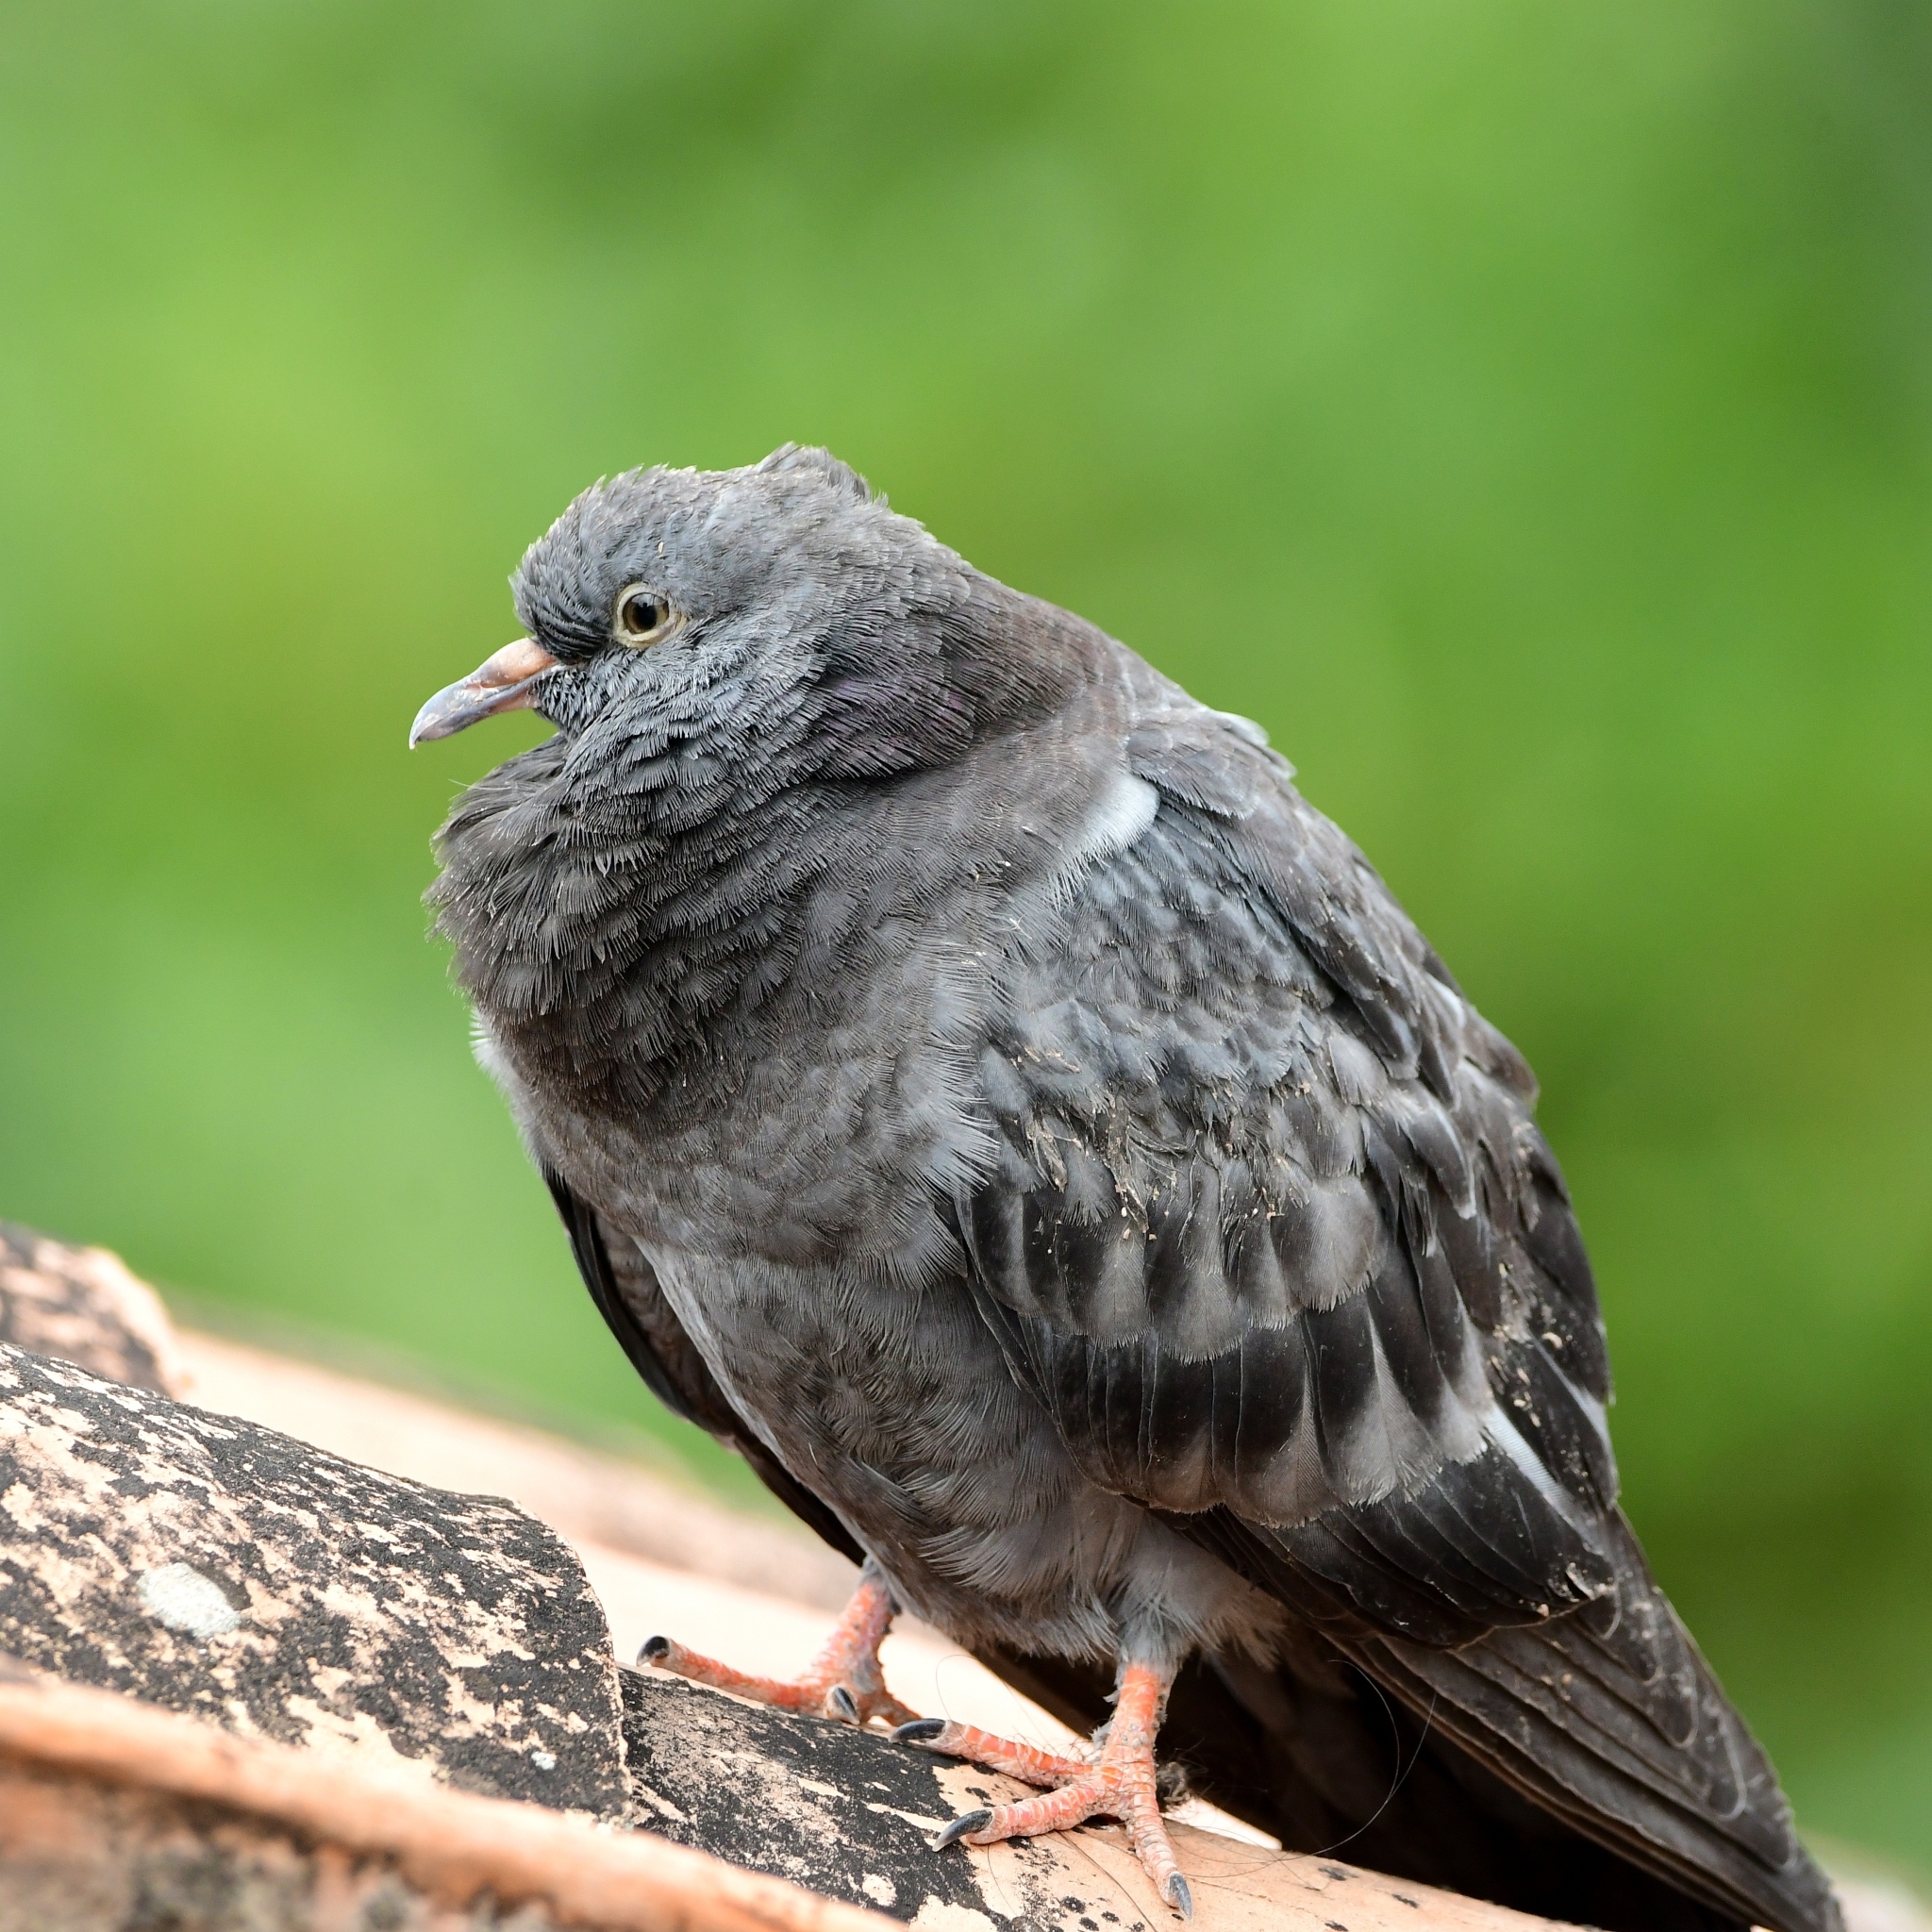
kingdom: Animalia
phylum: Chordata
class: Aves
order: Columbiformes
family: Columbidae
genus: Columba
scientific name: Columba livia
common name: Rock pigeon
